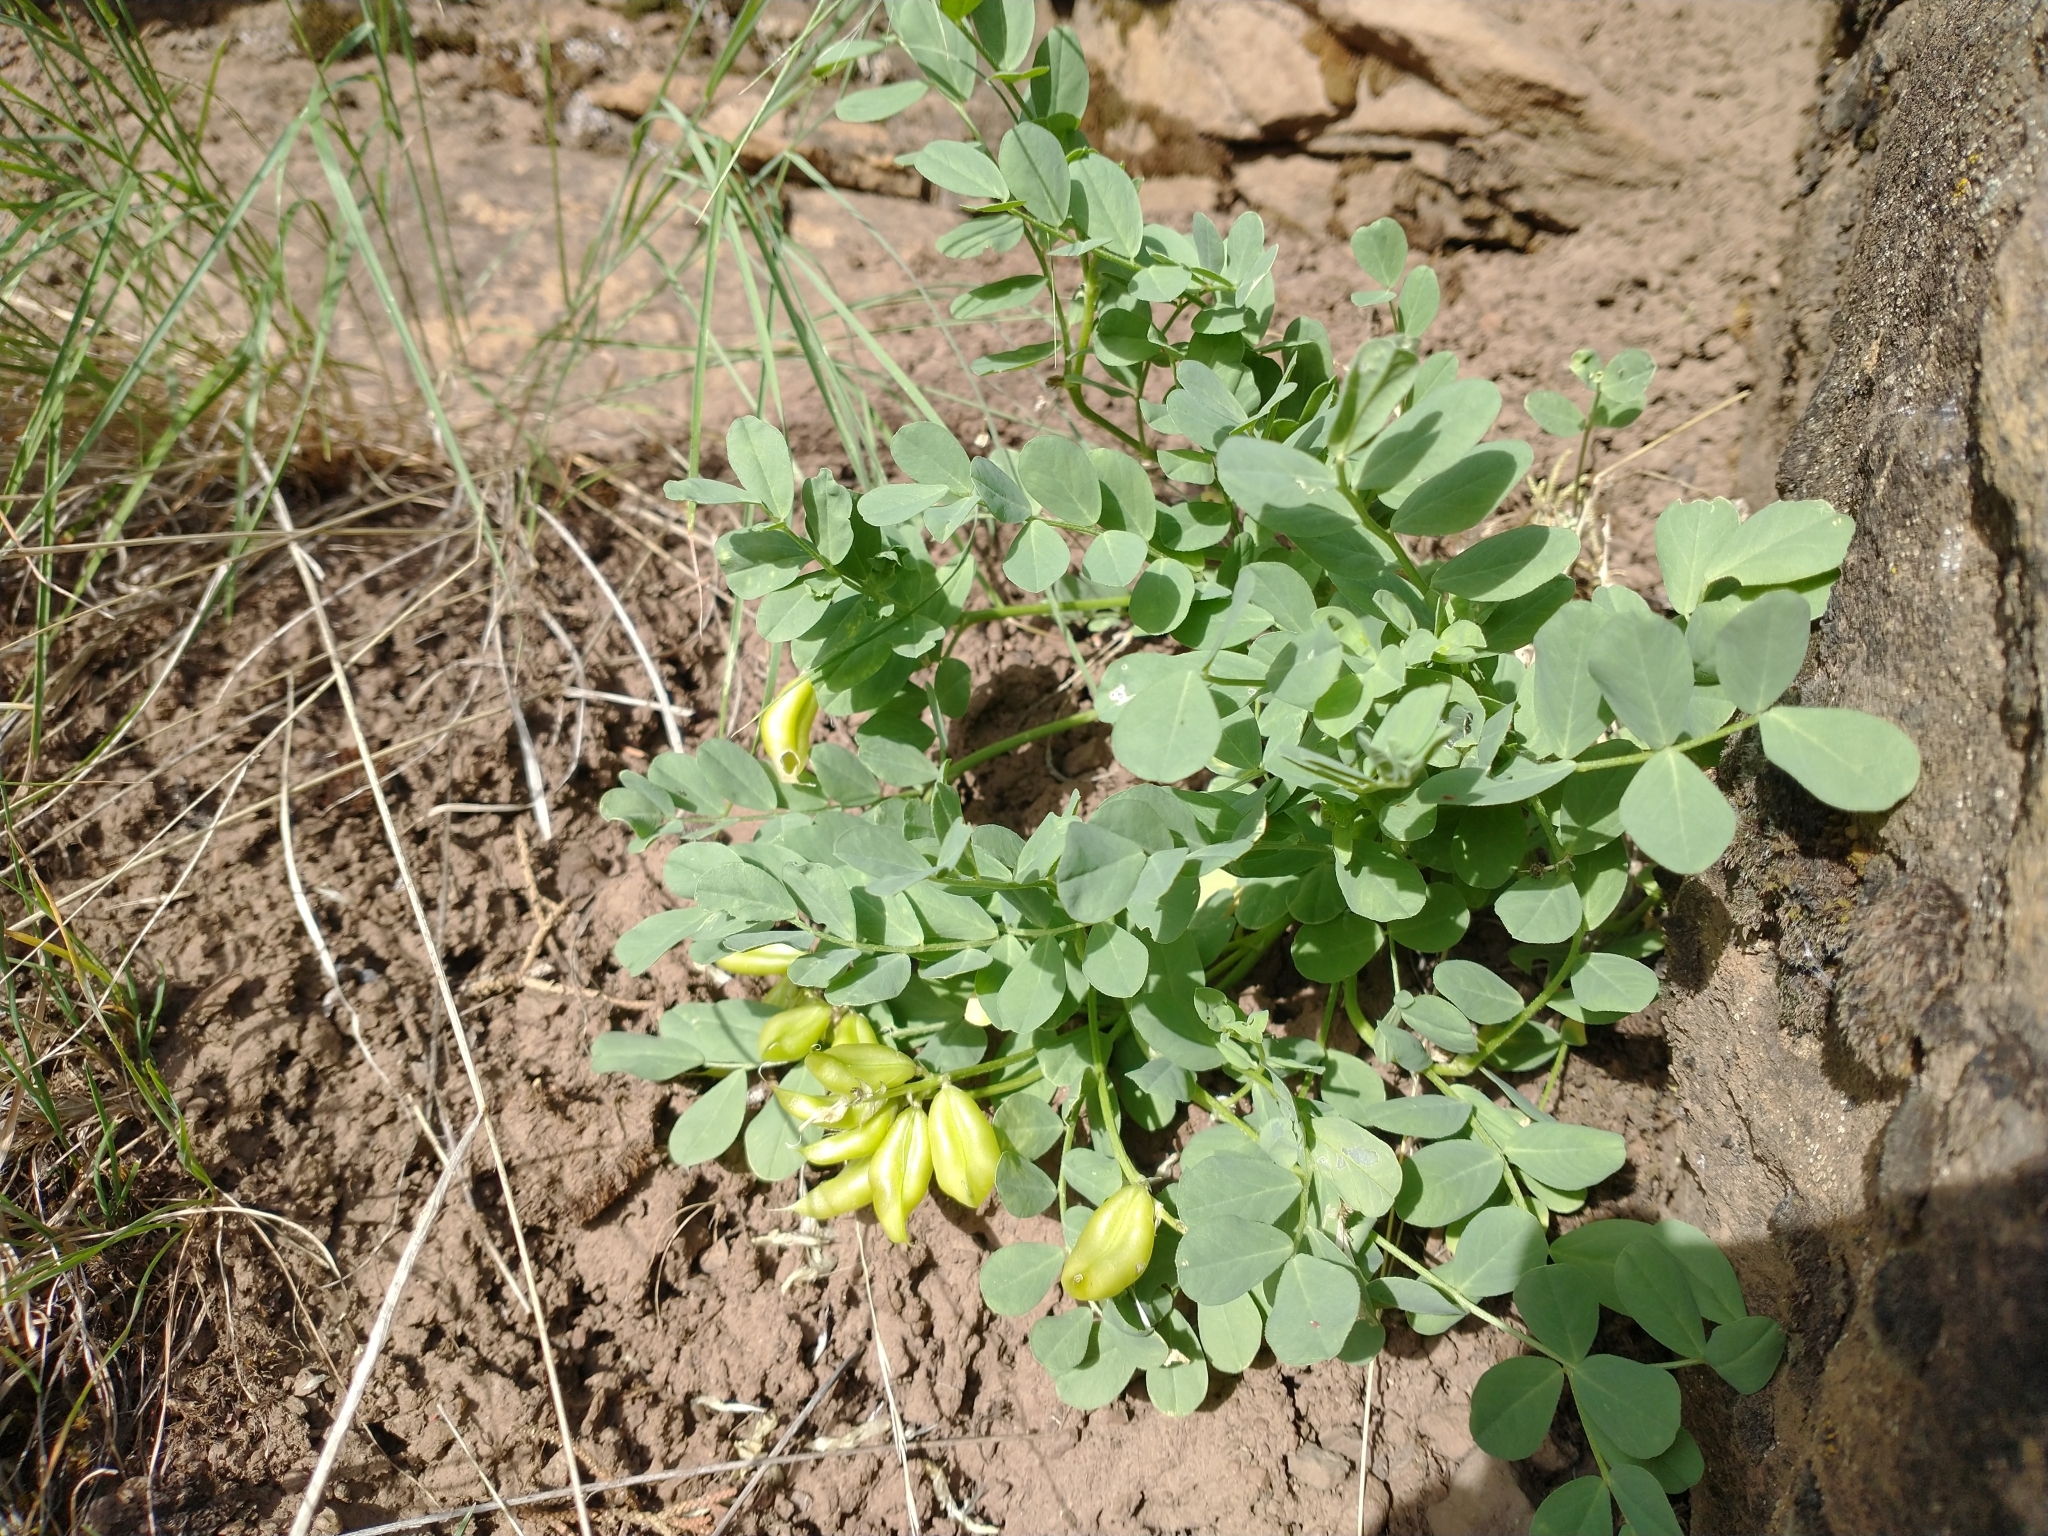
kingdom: Plantae
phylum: Tracheophyta
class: Magnoliopsida
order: Fabales
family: Fabaceae
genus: Astragalus
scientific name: Astragalus lentiginosus
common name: Freckled milkvetch
